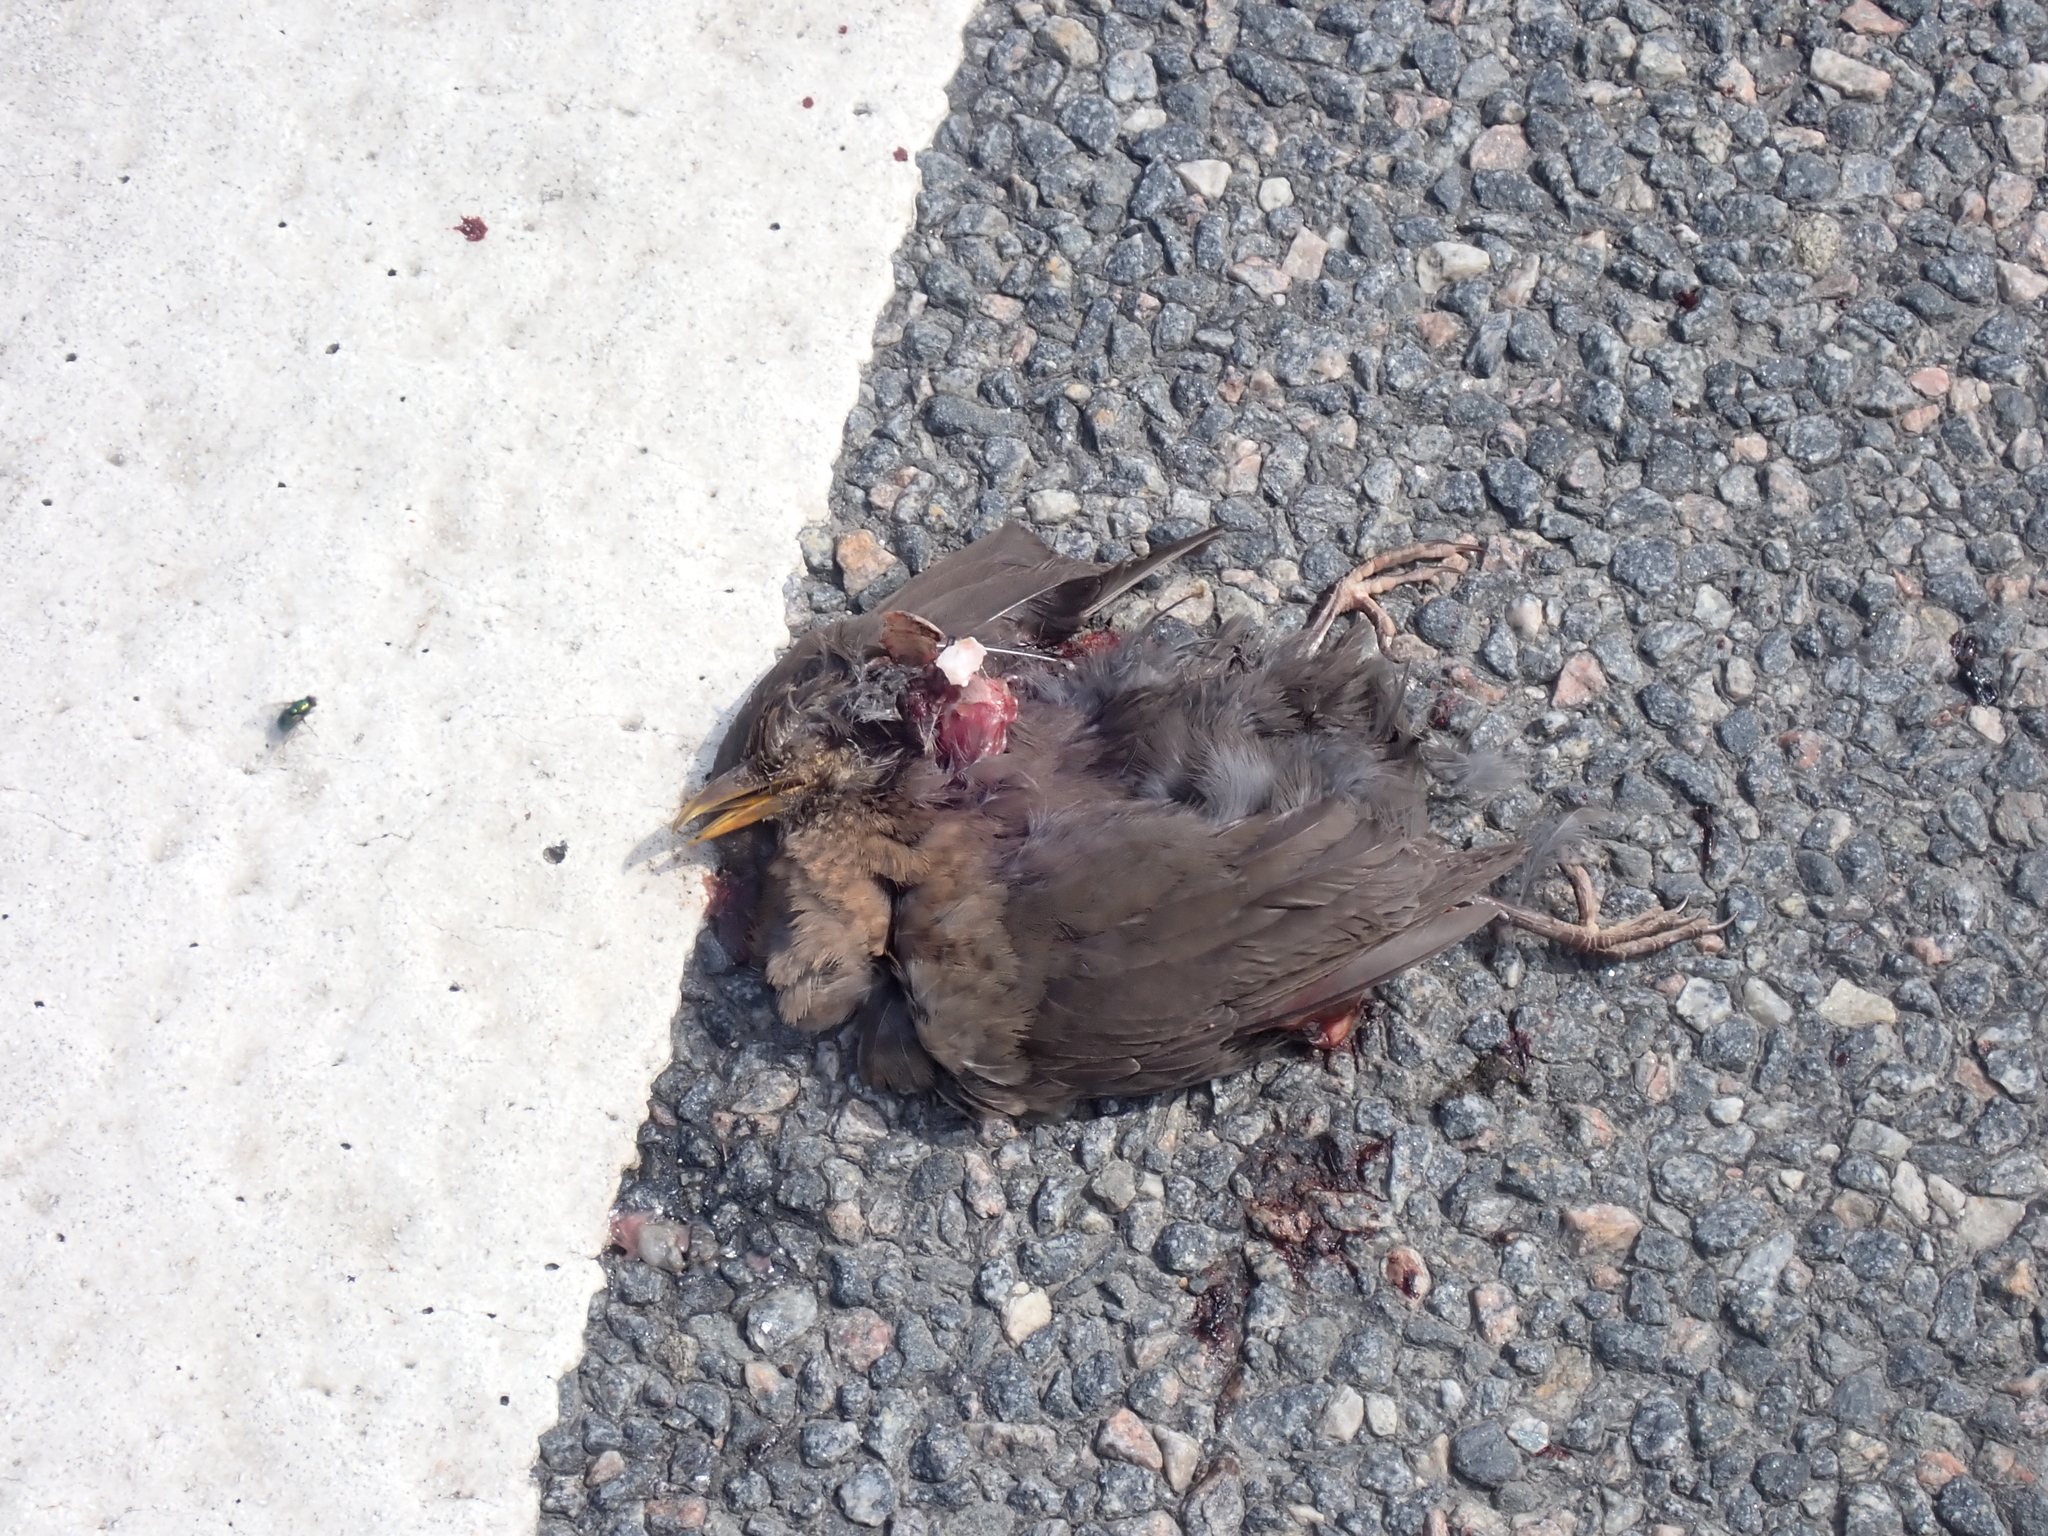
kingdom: Animalia
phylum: Chordata
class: Aves
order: Passeriformes
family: Turdidae
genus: Turdus
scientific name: Turdus merula
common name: Common blackbird
